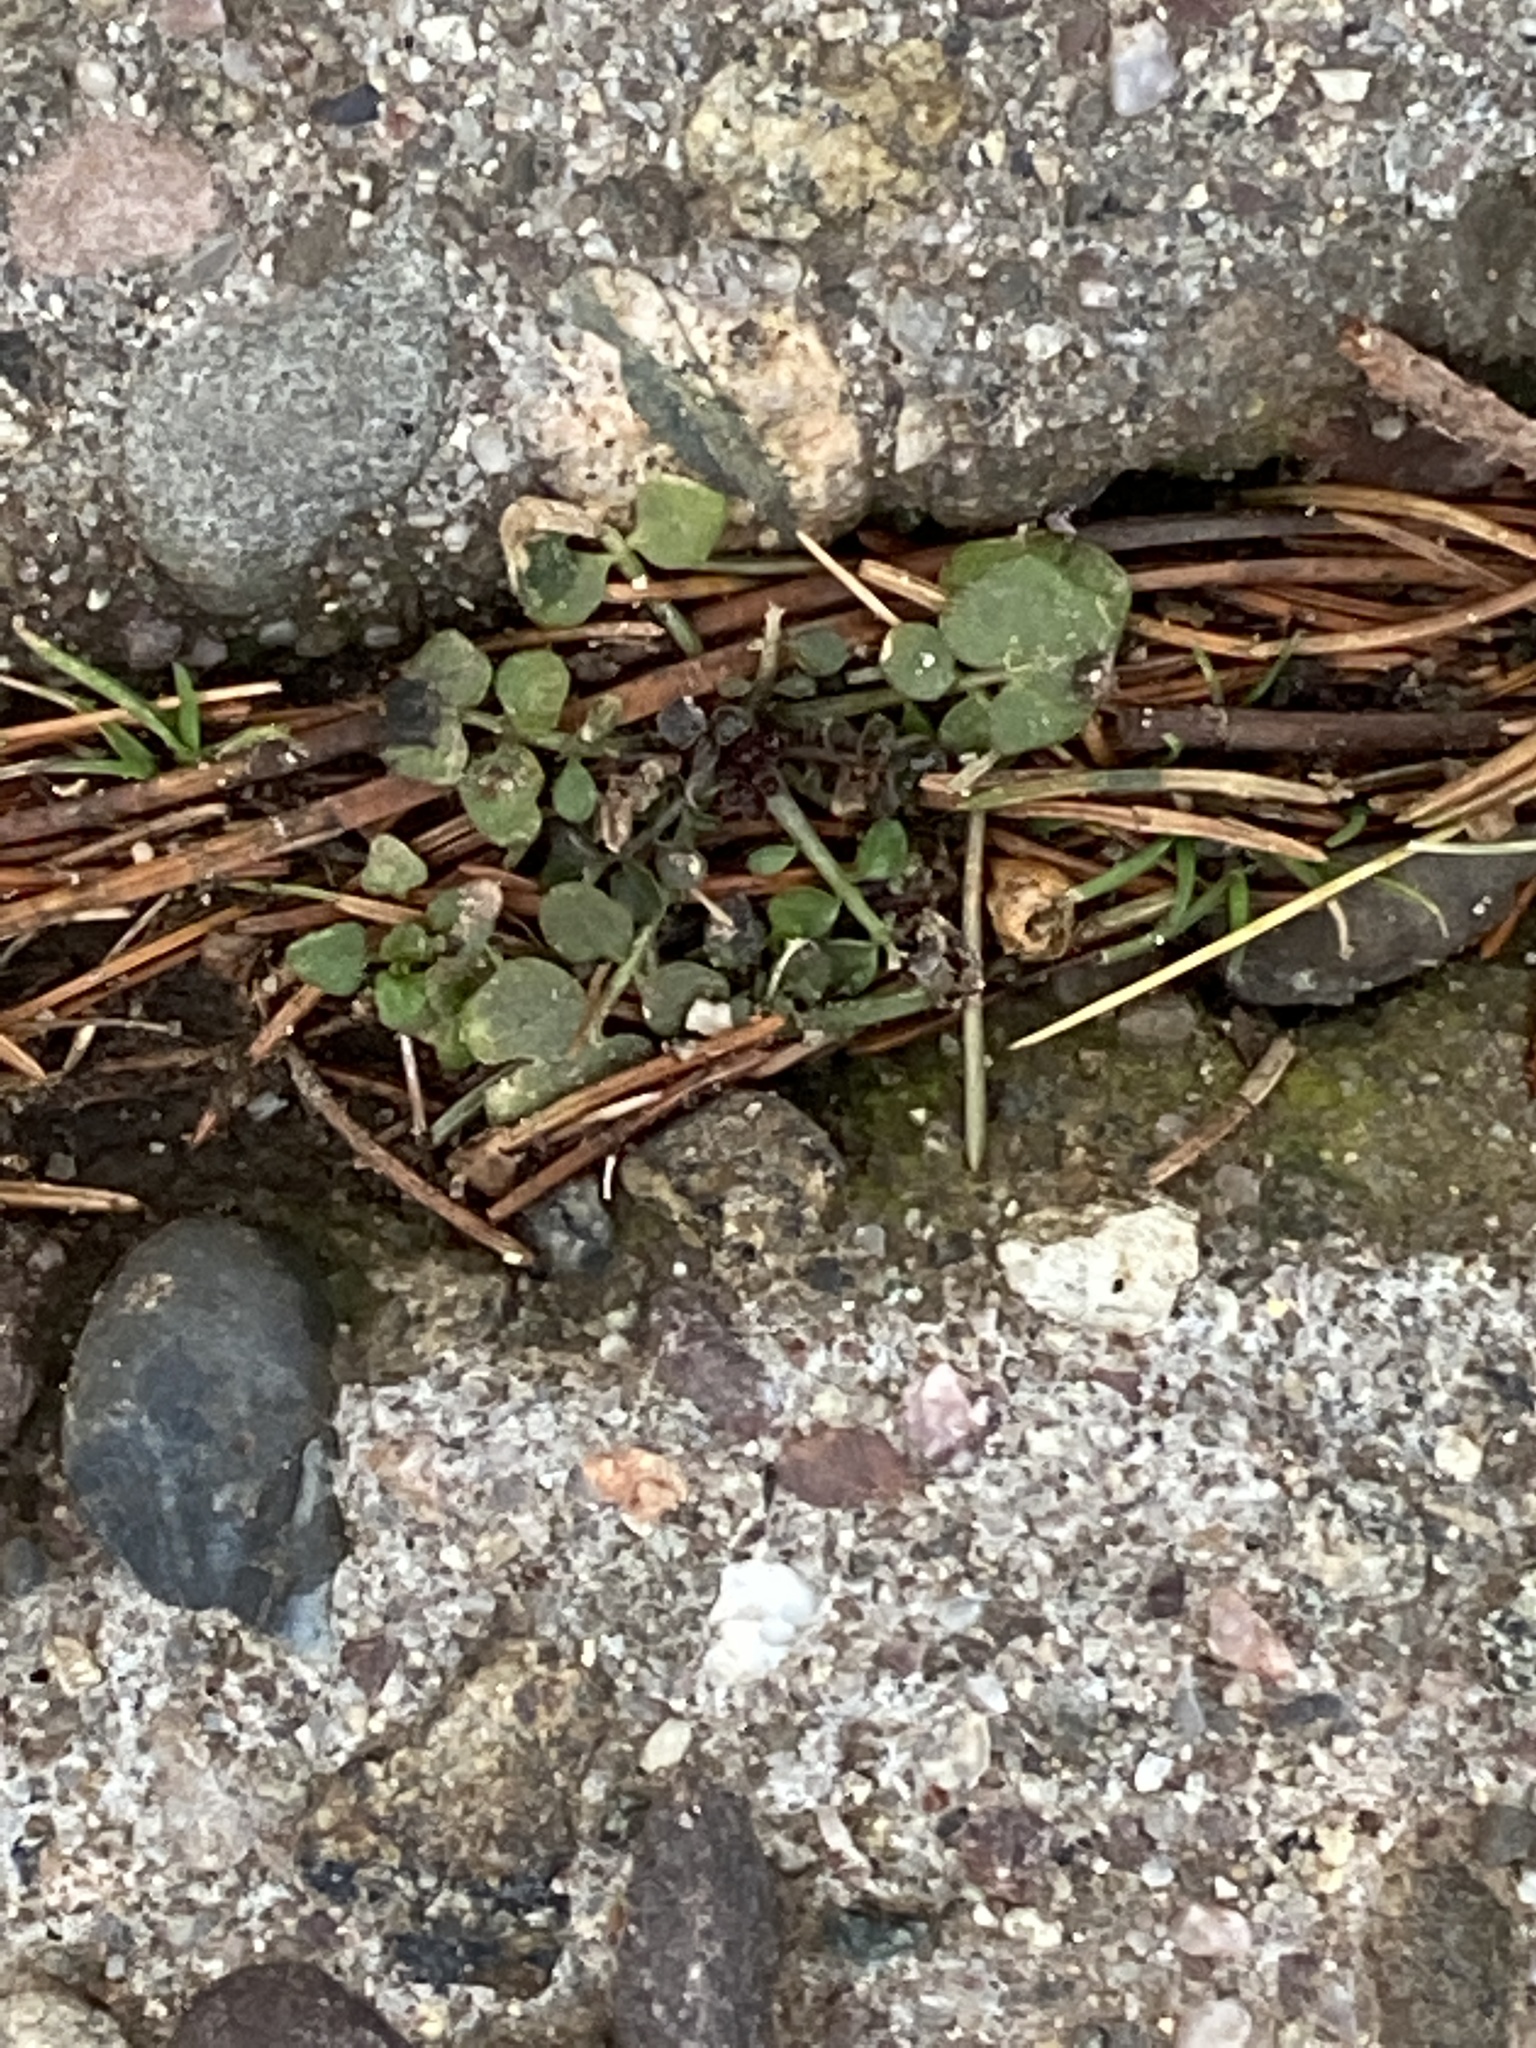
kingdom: Plantae
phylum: Tracheophyta
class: Magnoliopsida
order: Brassicales
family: Brassicaceae
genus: Cardamine
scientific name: Cardamine hirsuta
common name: Hairy bittercress
